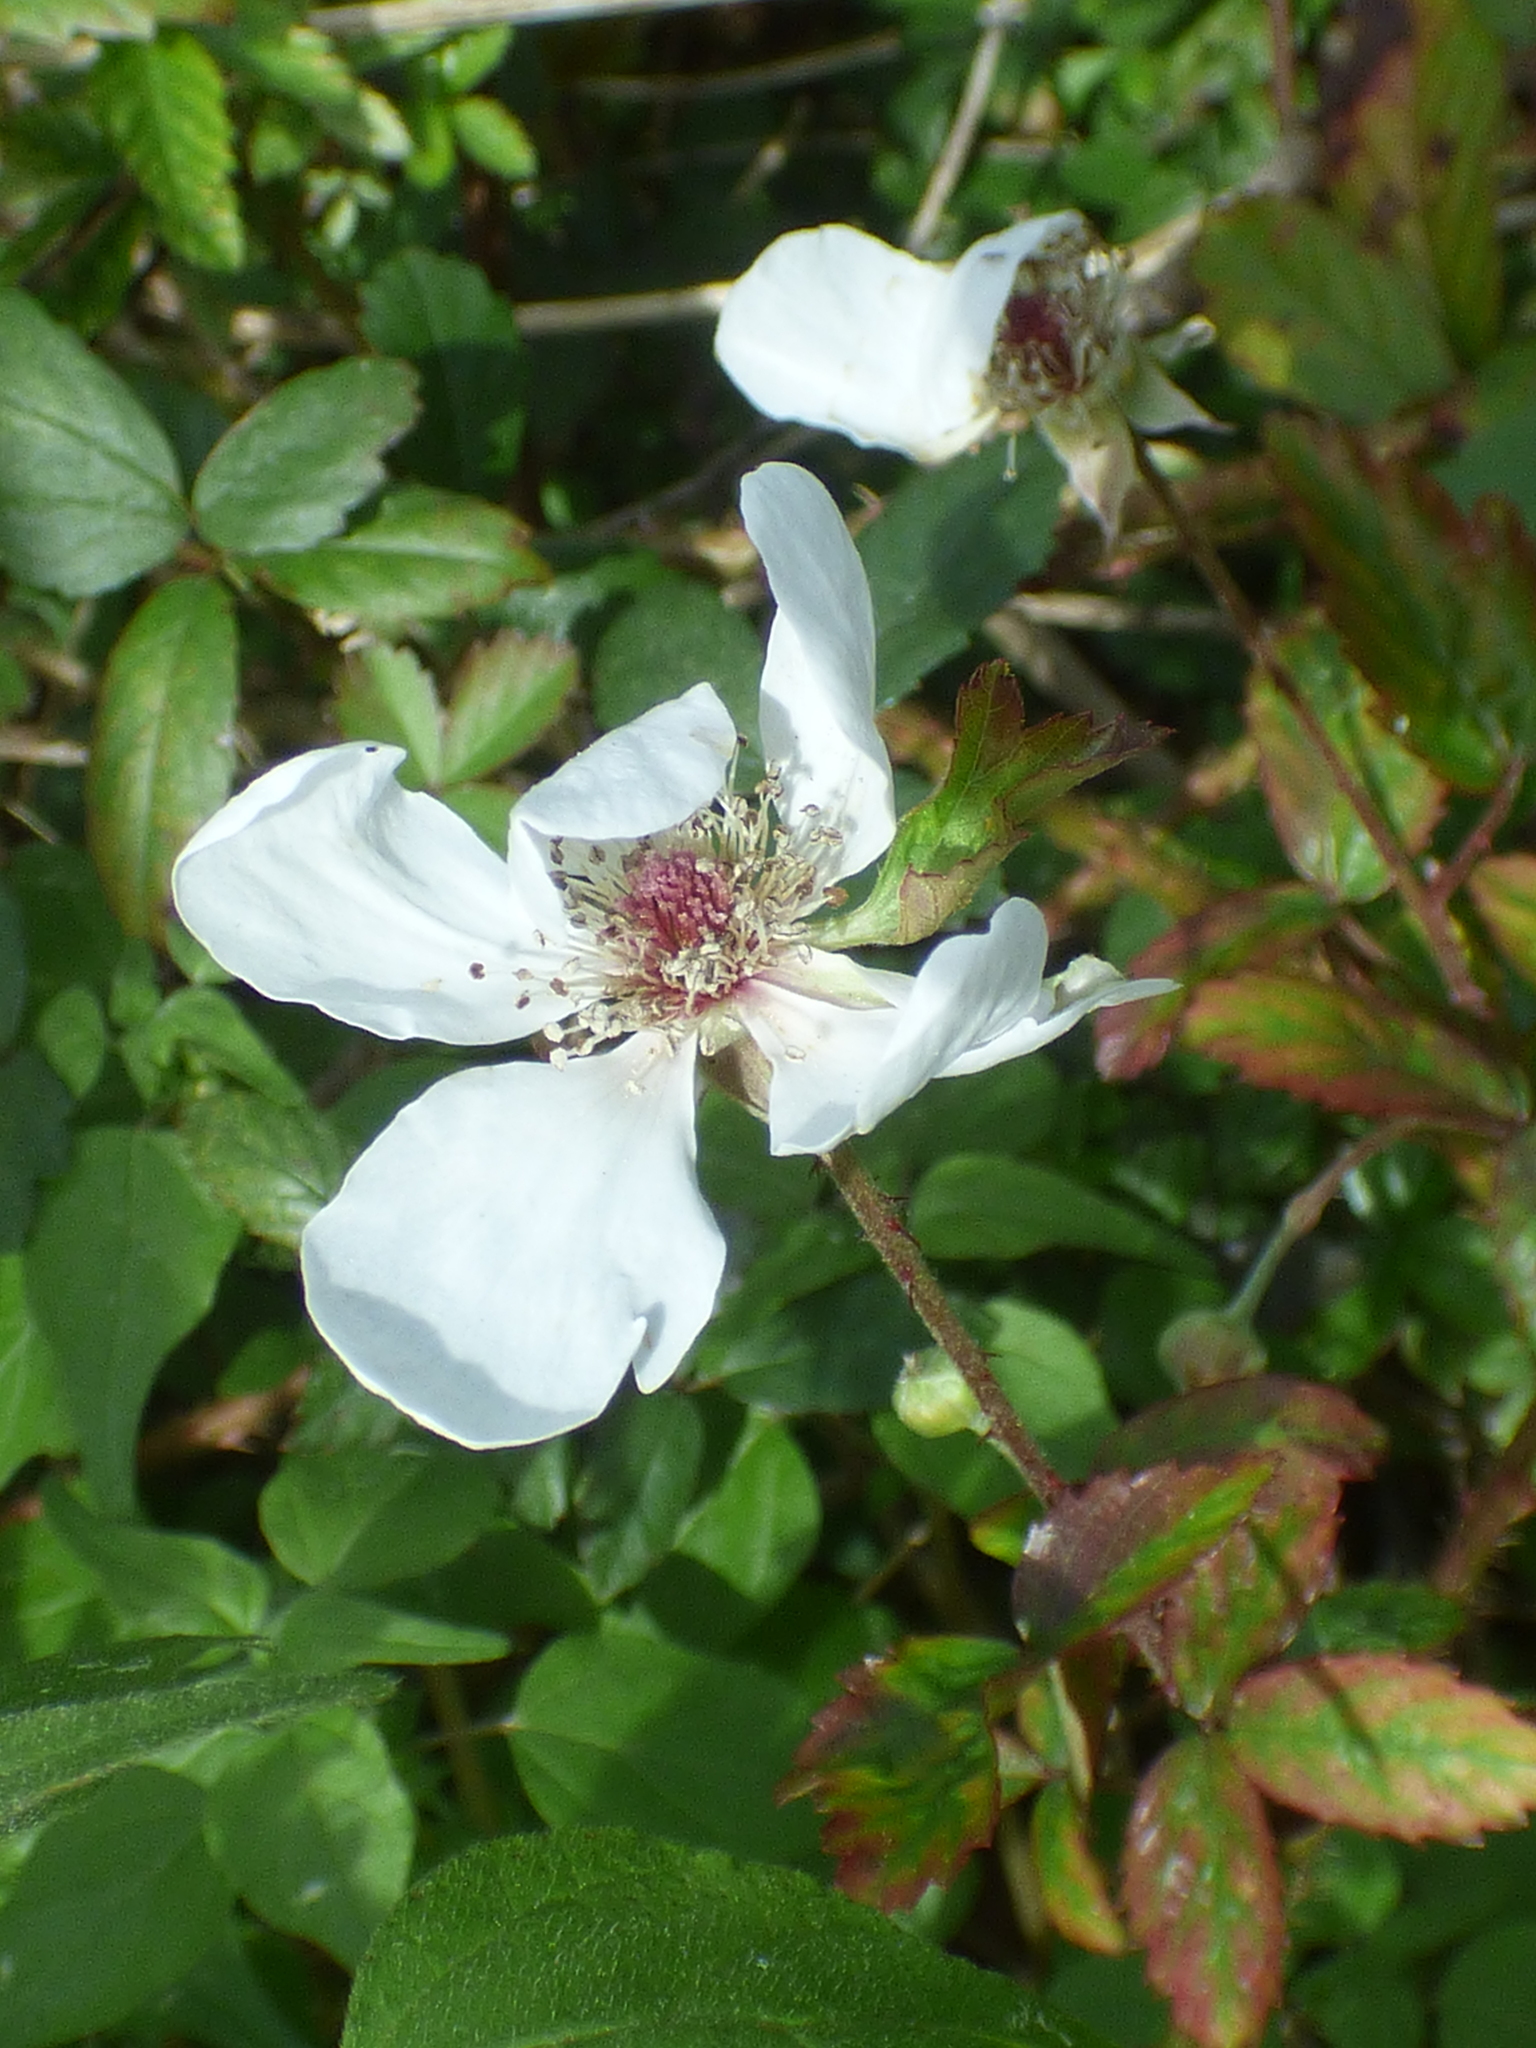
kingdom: Plantae
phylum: Tracheophyta
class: Magnoliopsida
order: Rosales
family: Rosaceae
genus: Rubus
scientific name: Rubus trivialis
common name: Southern dewberry
